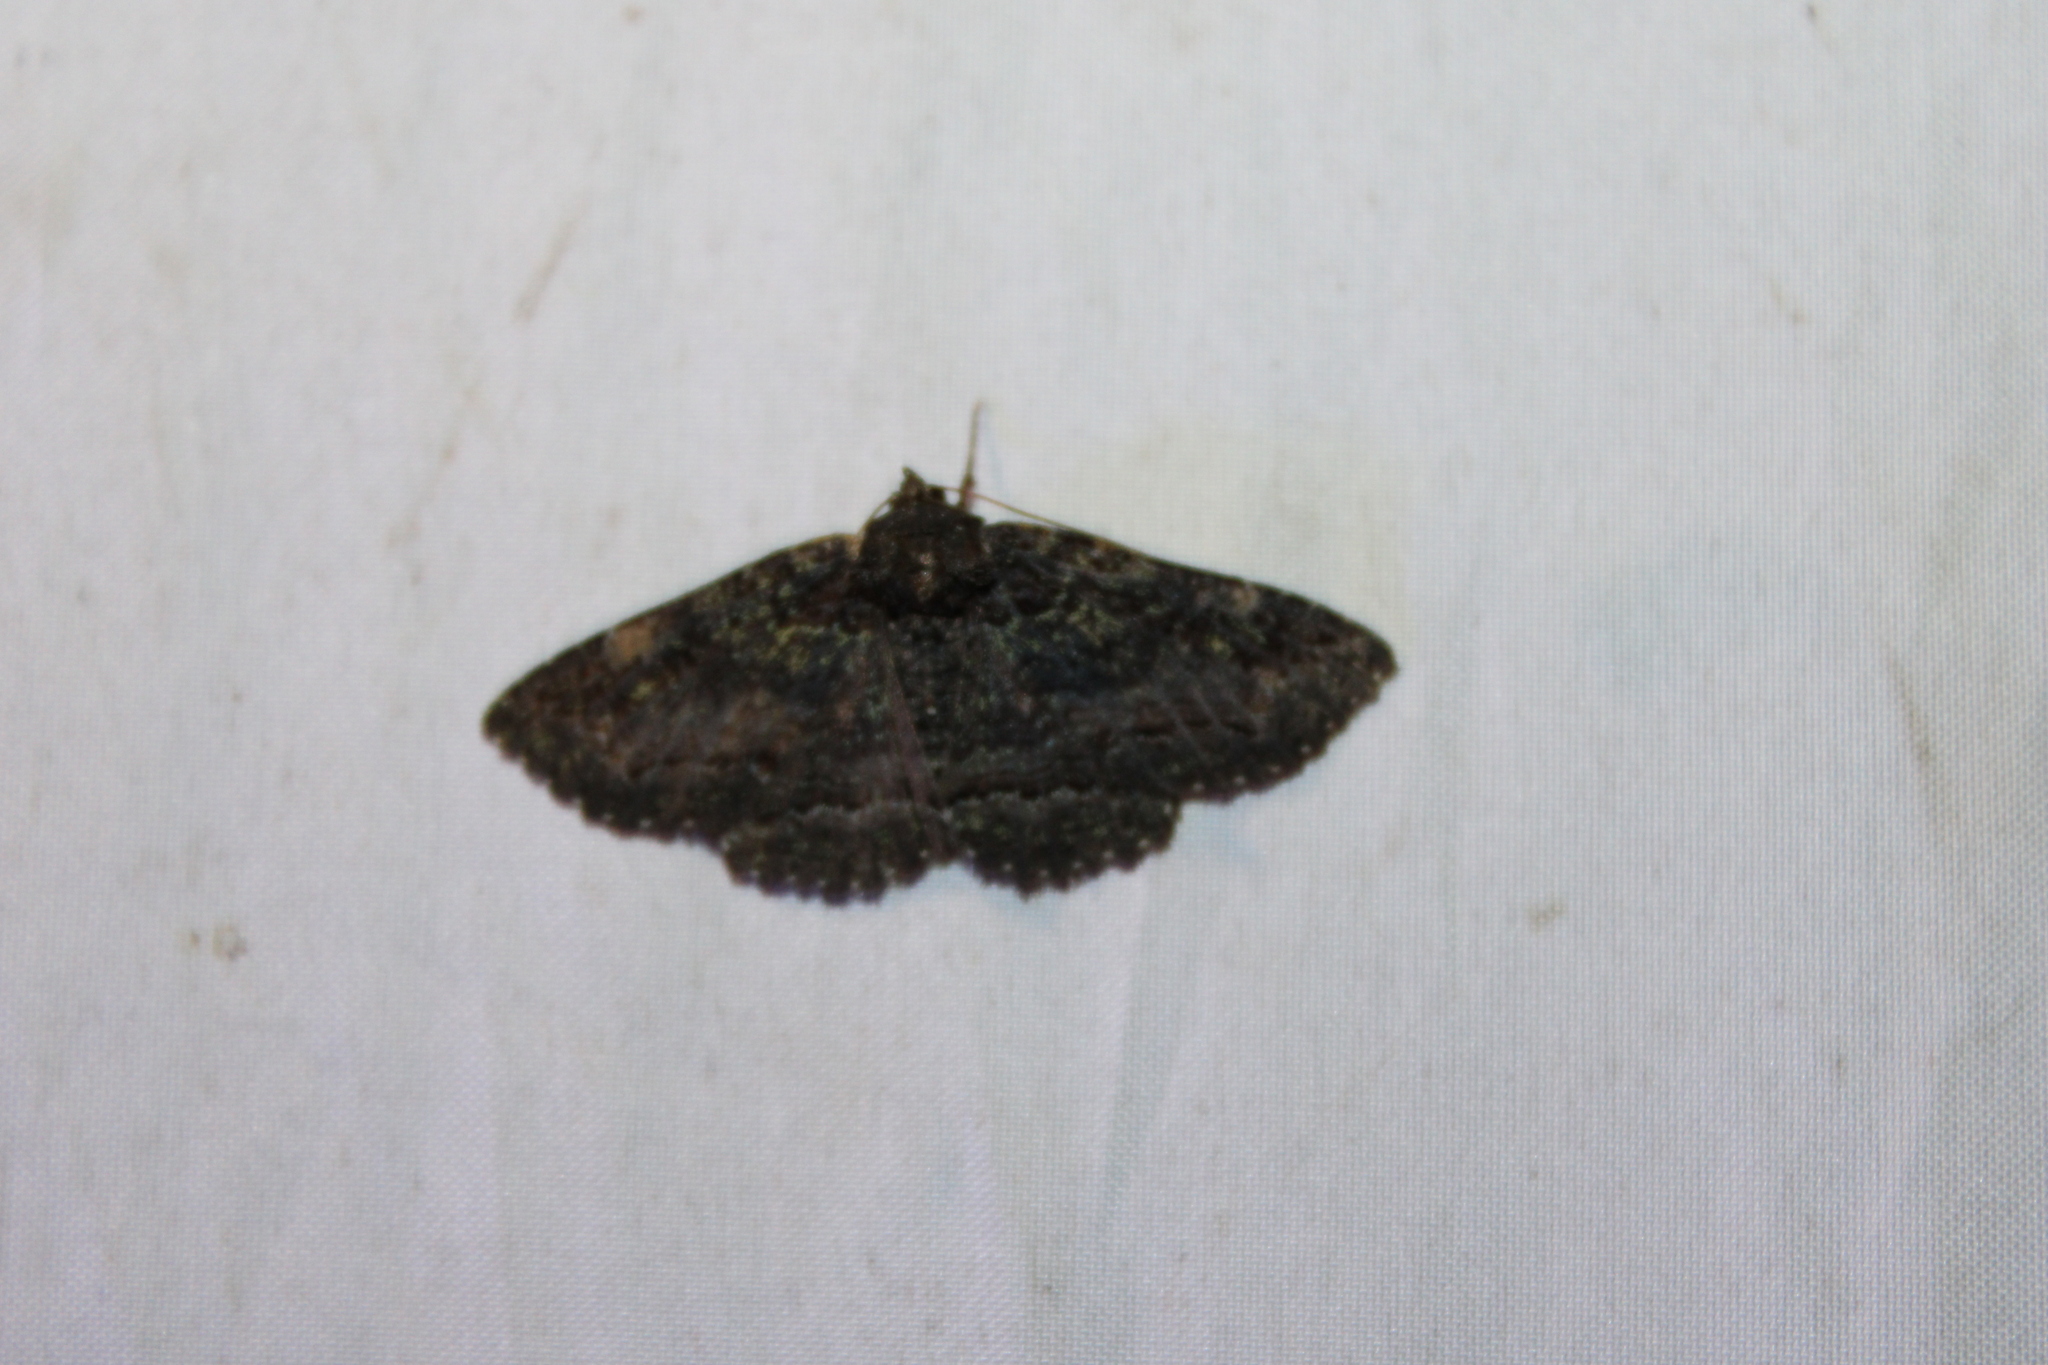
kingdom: Animalia
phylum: Arthropoda
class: Insecta
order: Lepidoptera
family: Erebidae
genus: Zale
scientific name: Zale aeruginosa
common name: Green-dusted zale moth
